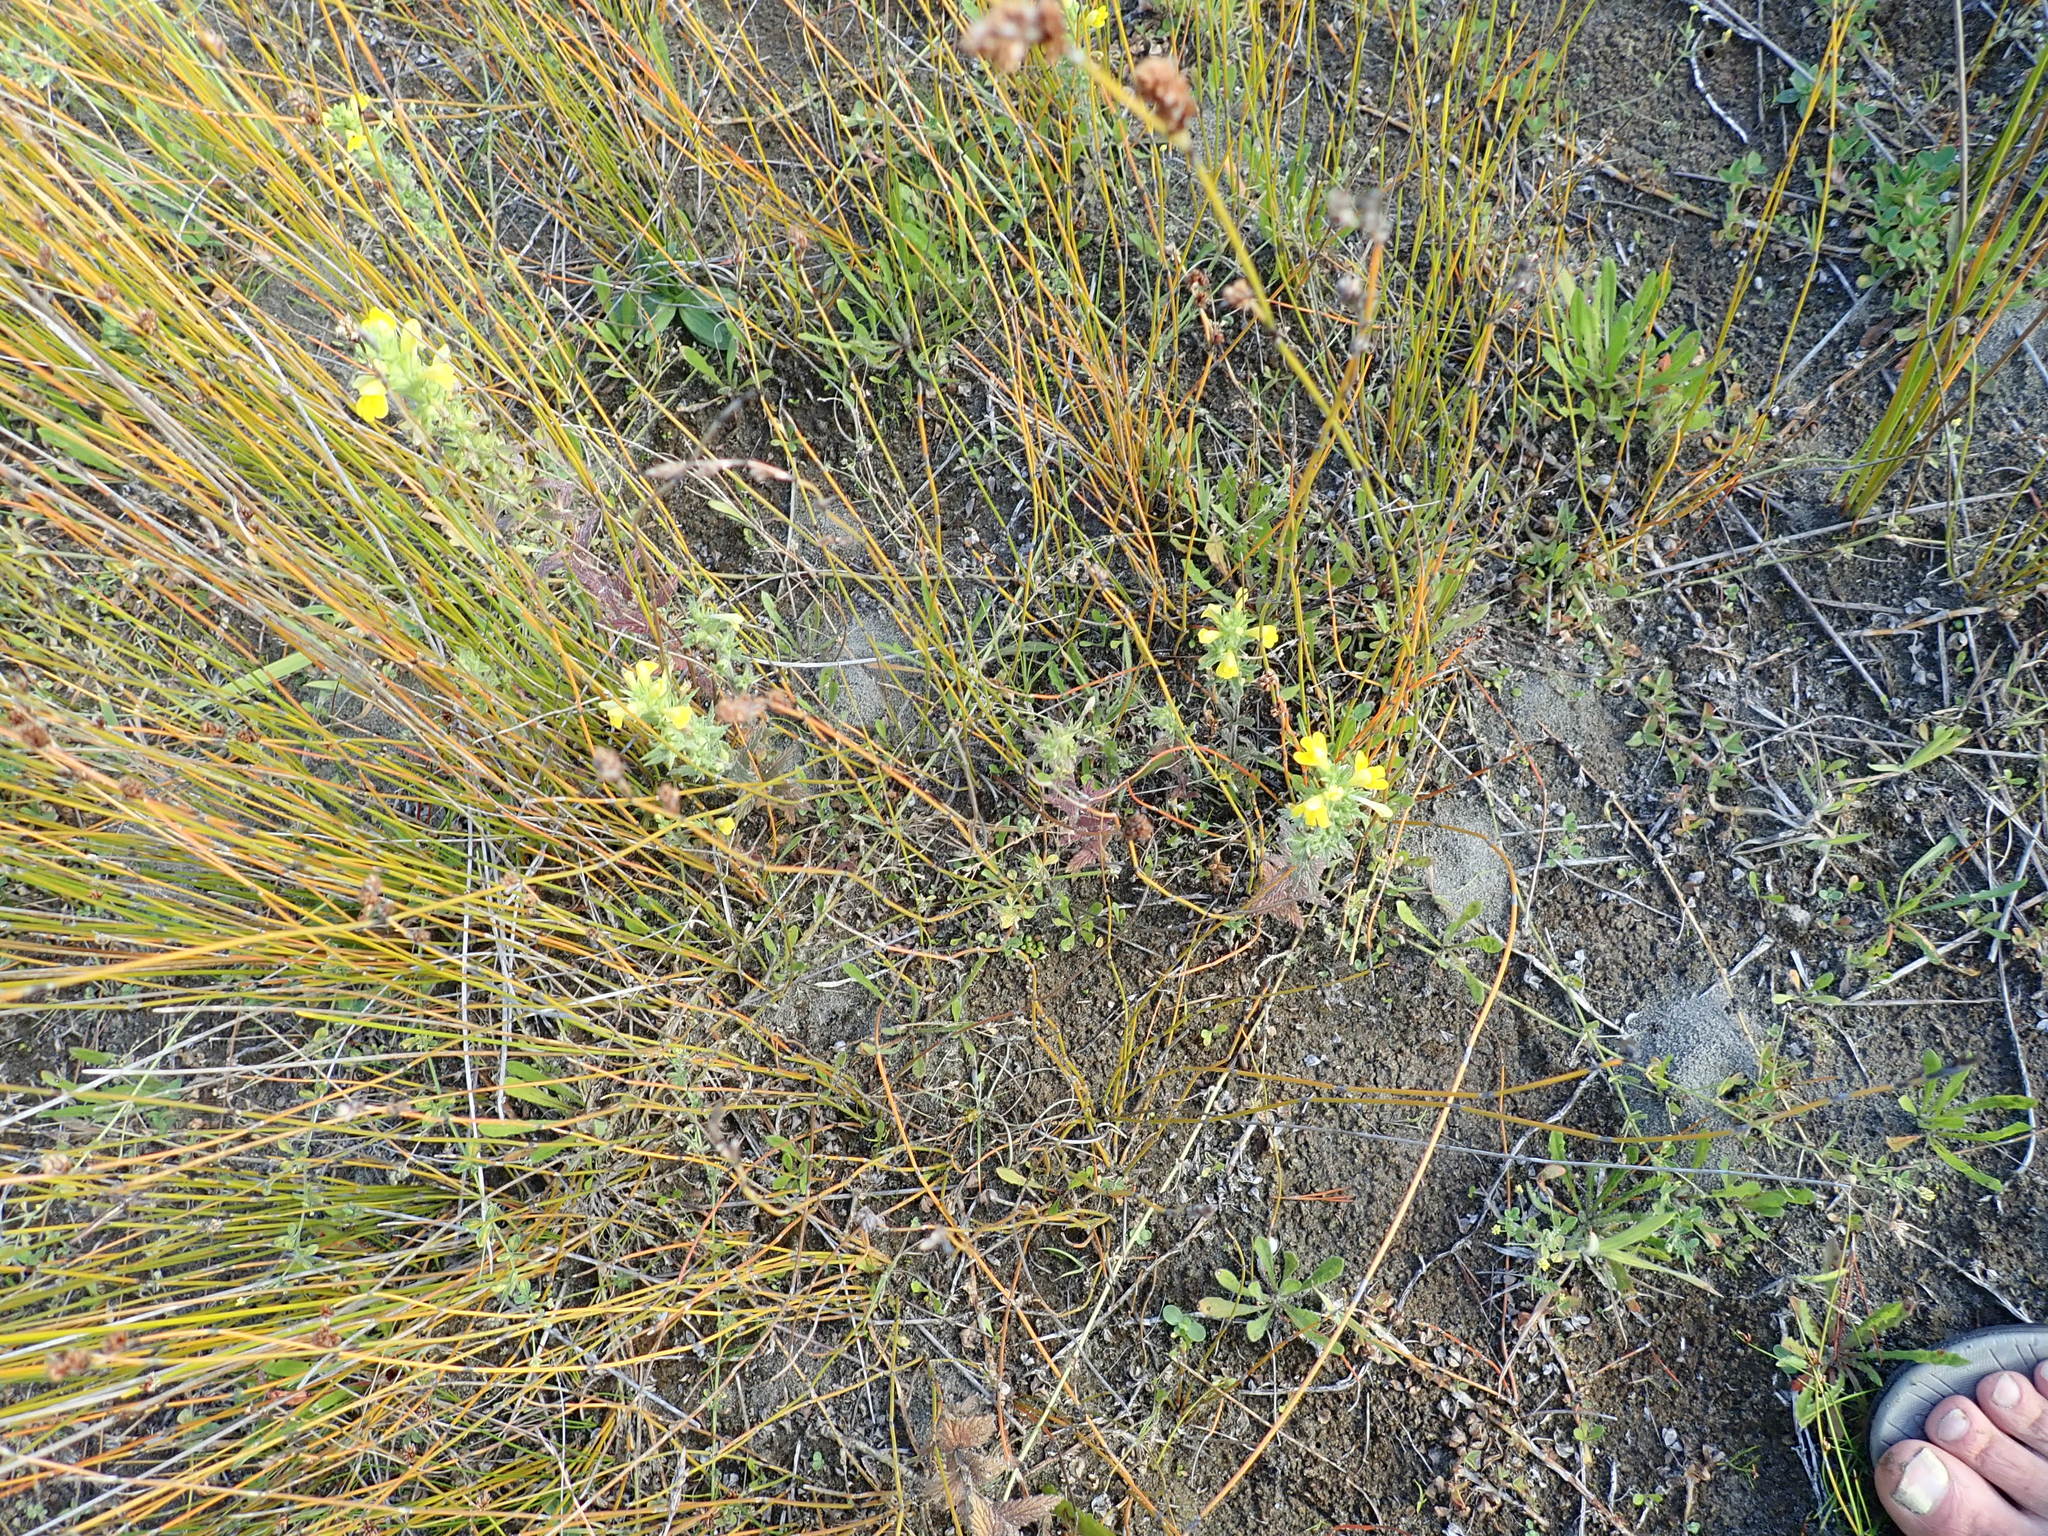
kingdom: Plantae
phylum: Tracheophyta
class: Magnoliopsida
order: Lamiales
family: Orobanchaceae
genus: Bellardia
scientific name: Bellardia viscosa
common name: Sticky parentucellia
